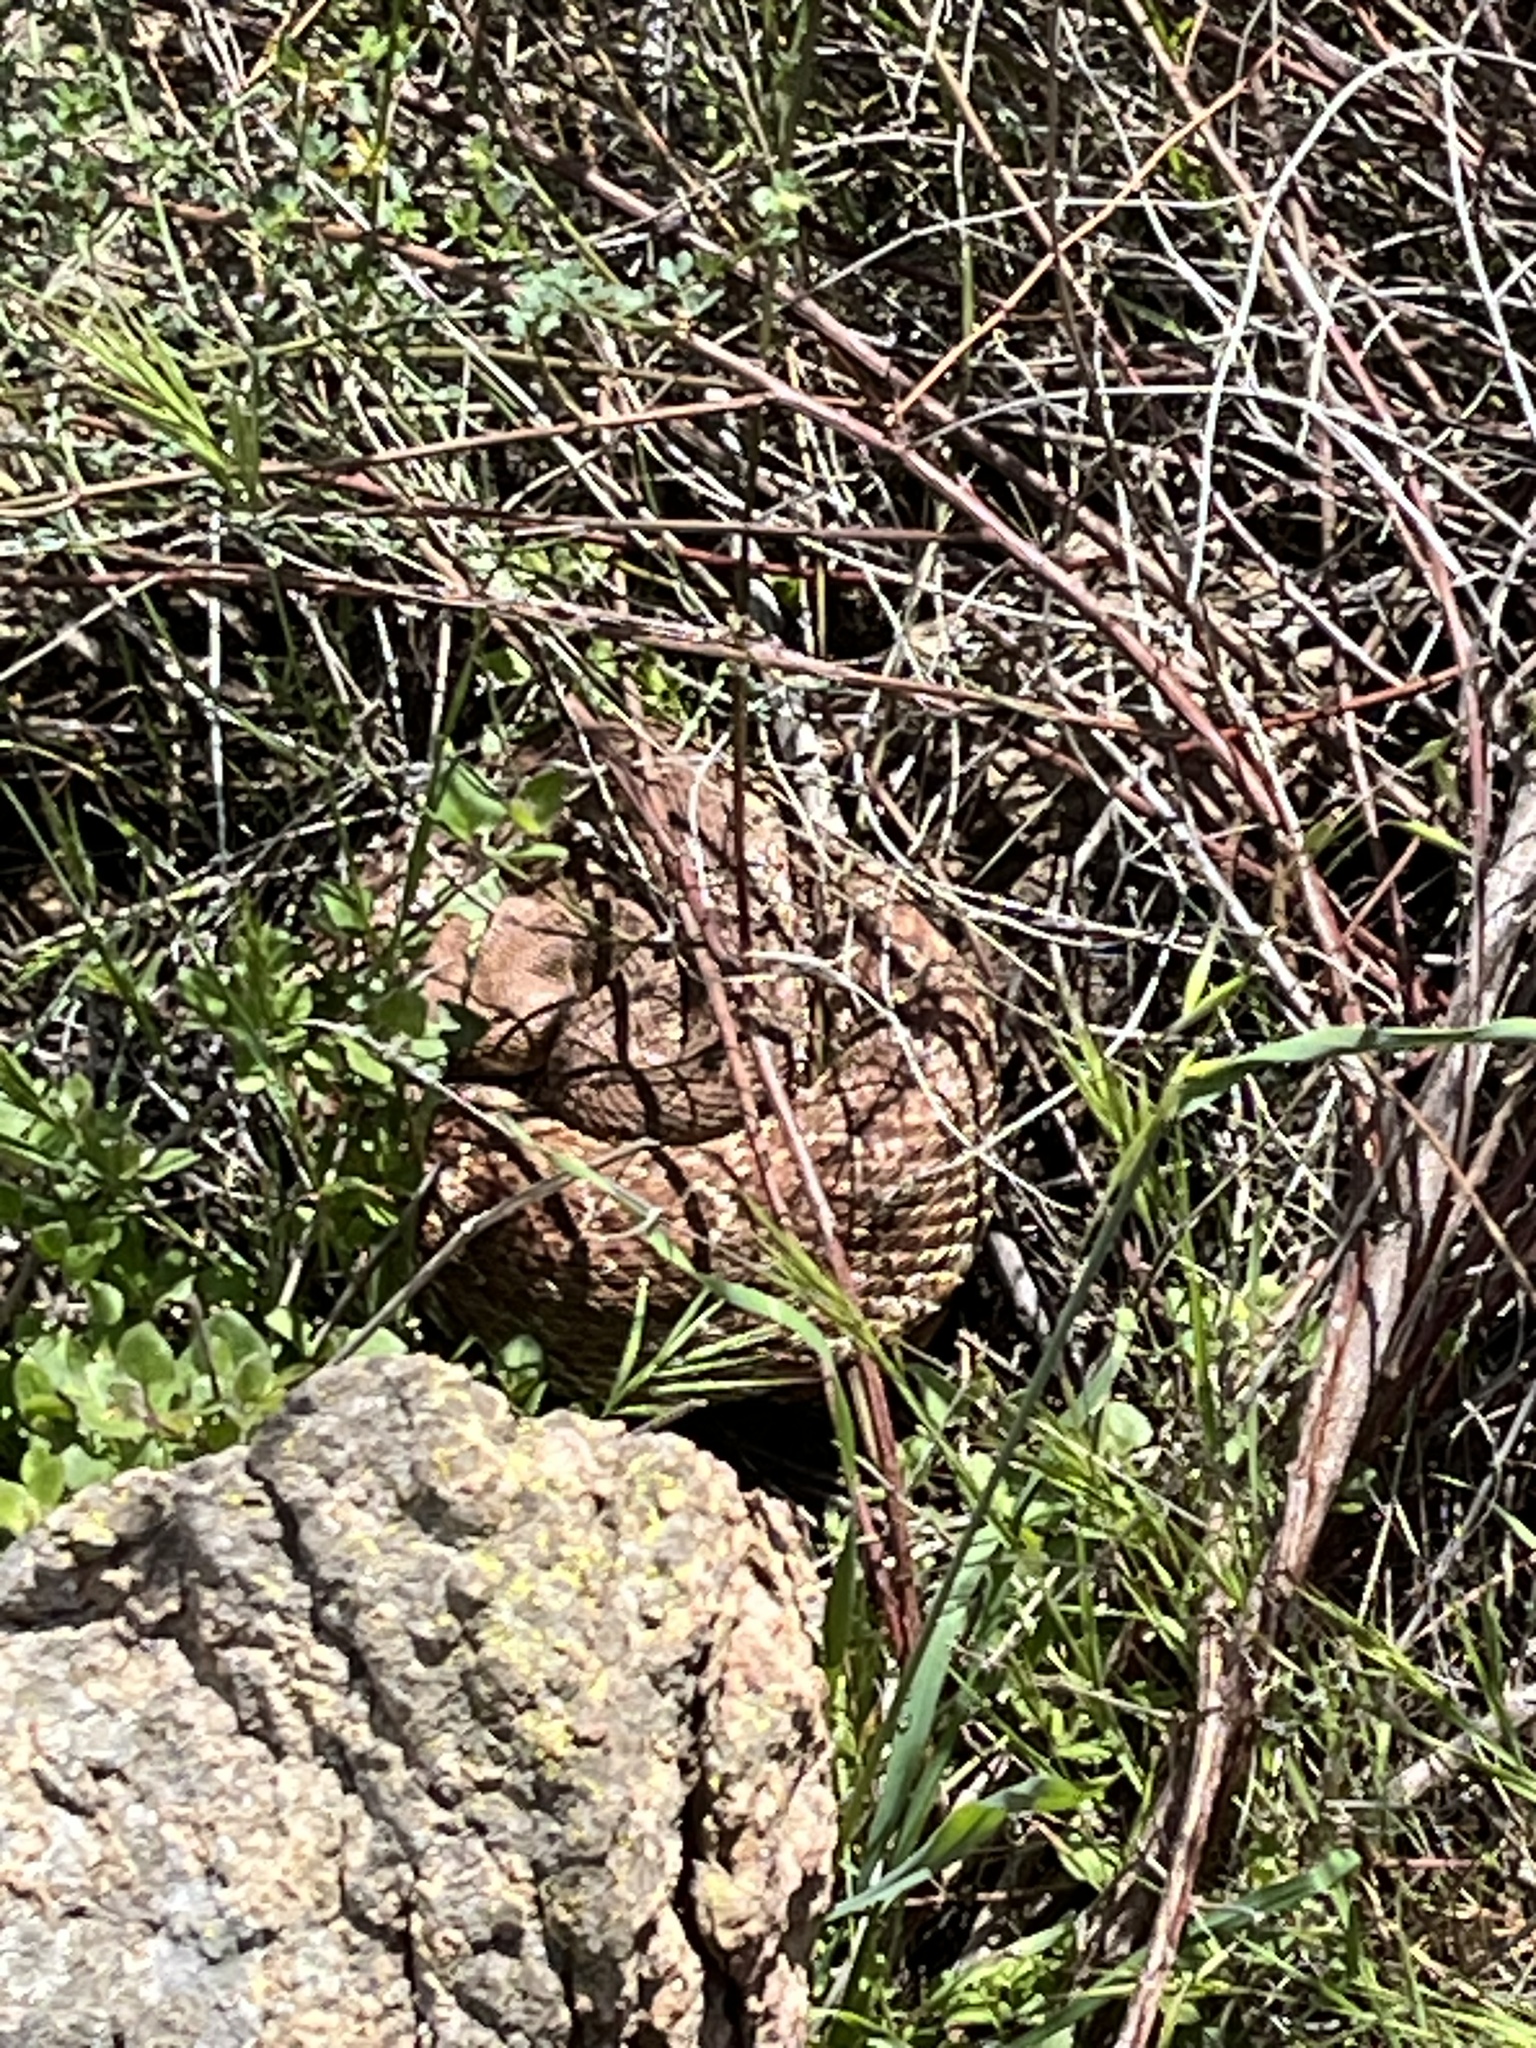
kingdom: Animalia
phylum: Chordata
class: Squamata
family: Viperidae
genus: Crotalus
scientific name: Crotalus ruber
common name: Red diamond rattlesnake
